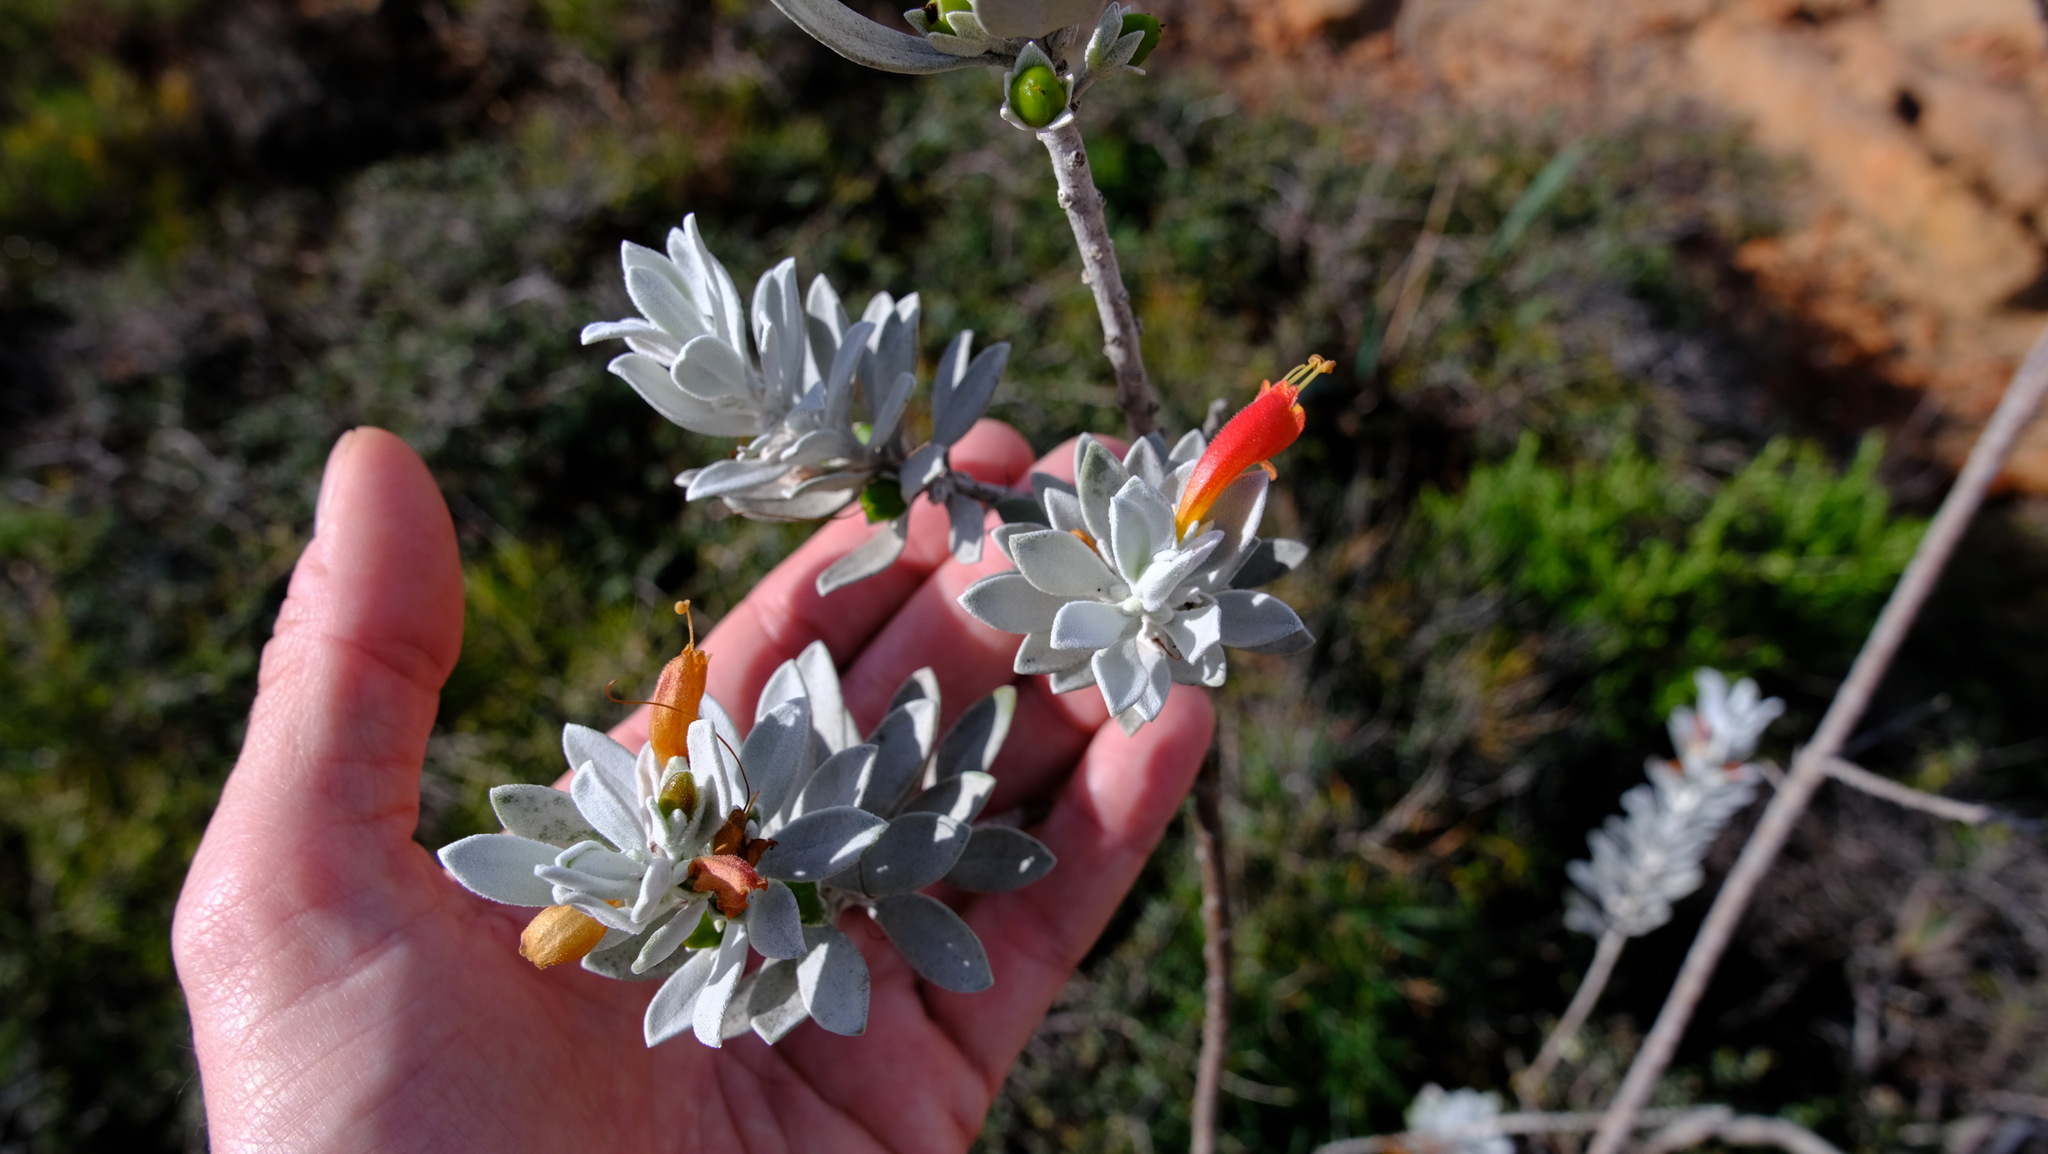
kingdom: Plantae
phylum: Tracheophyta
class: Magnoliopsida
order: Lamiales
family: Scrophulariaceae
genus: Eremophila
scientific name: Eremophila glabra
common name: Black-fuchsia
